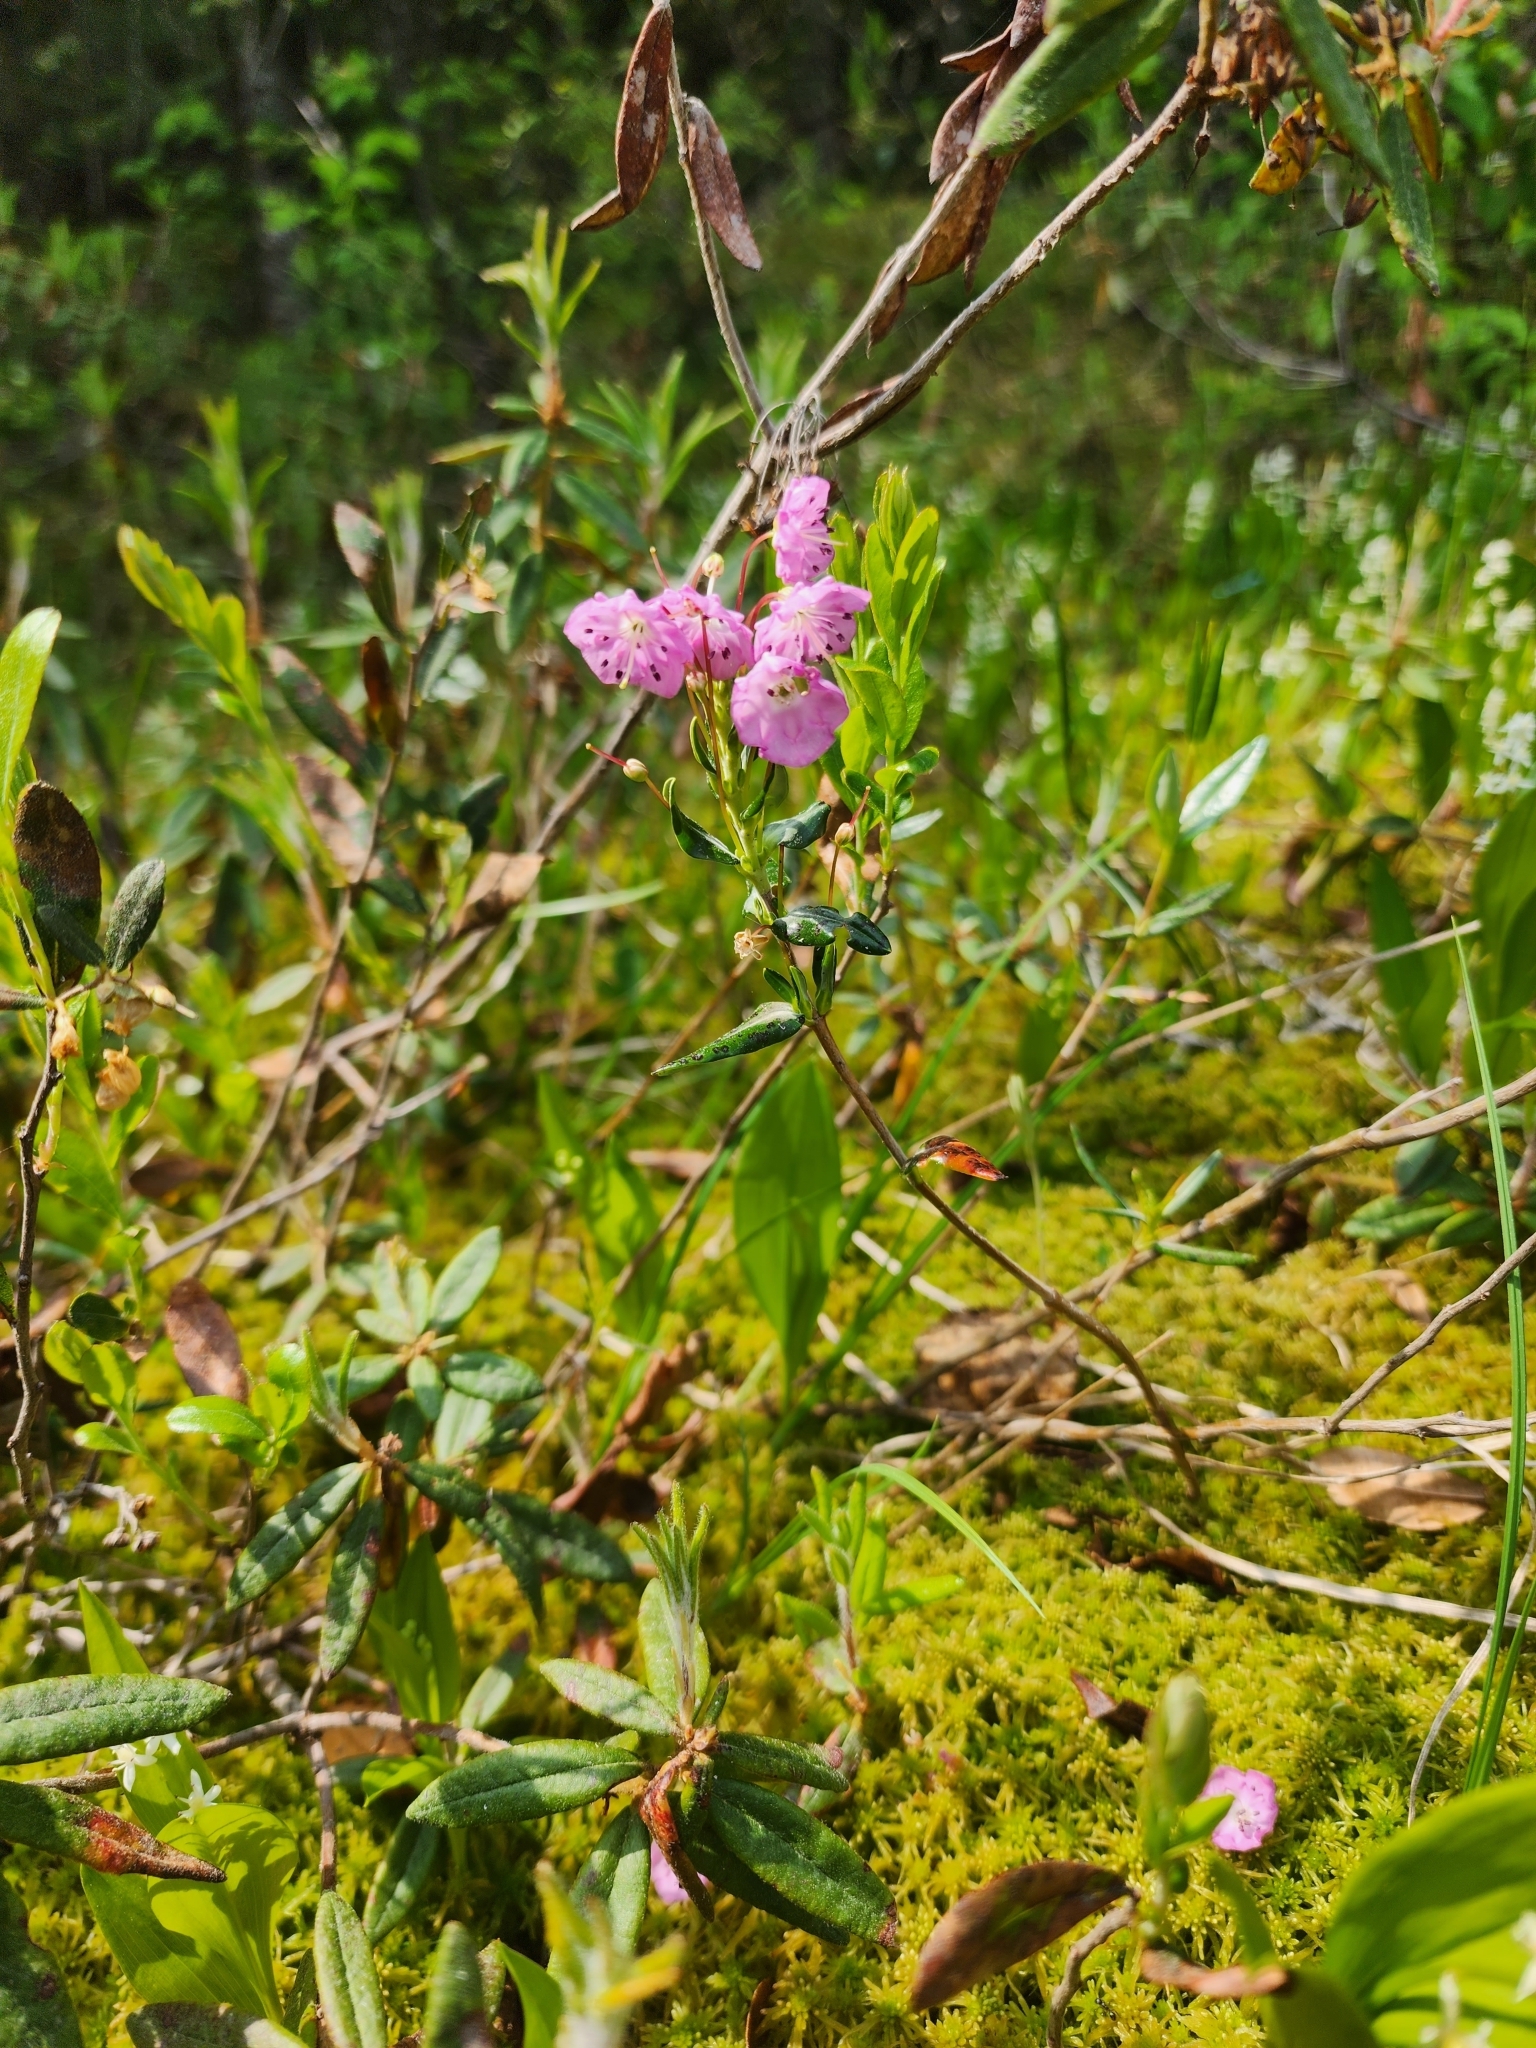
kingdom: Plantae
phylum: Tracheophyta
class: Magnoliopsida
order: Ericales
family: Ericaceae
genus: Kalmia
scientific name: Kalmia polifolia
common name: Bog-laurel
